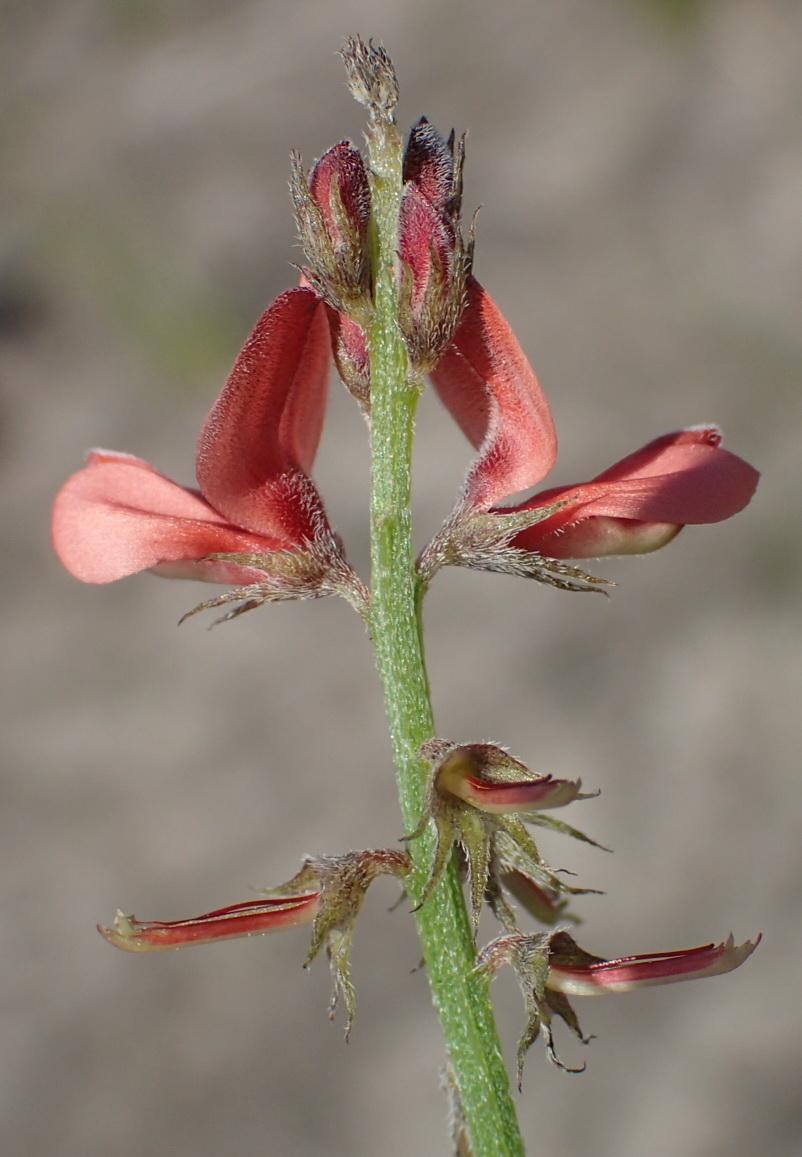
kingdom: Plantae
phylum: Tracheophyta
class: Magnoliopsida
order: Fabales
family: Fabaceae
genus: Indigofera
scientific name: Indigofera porrecta
